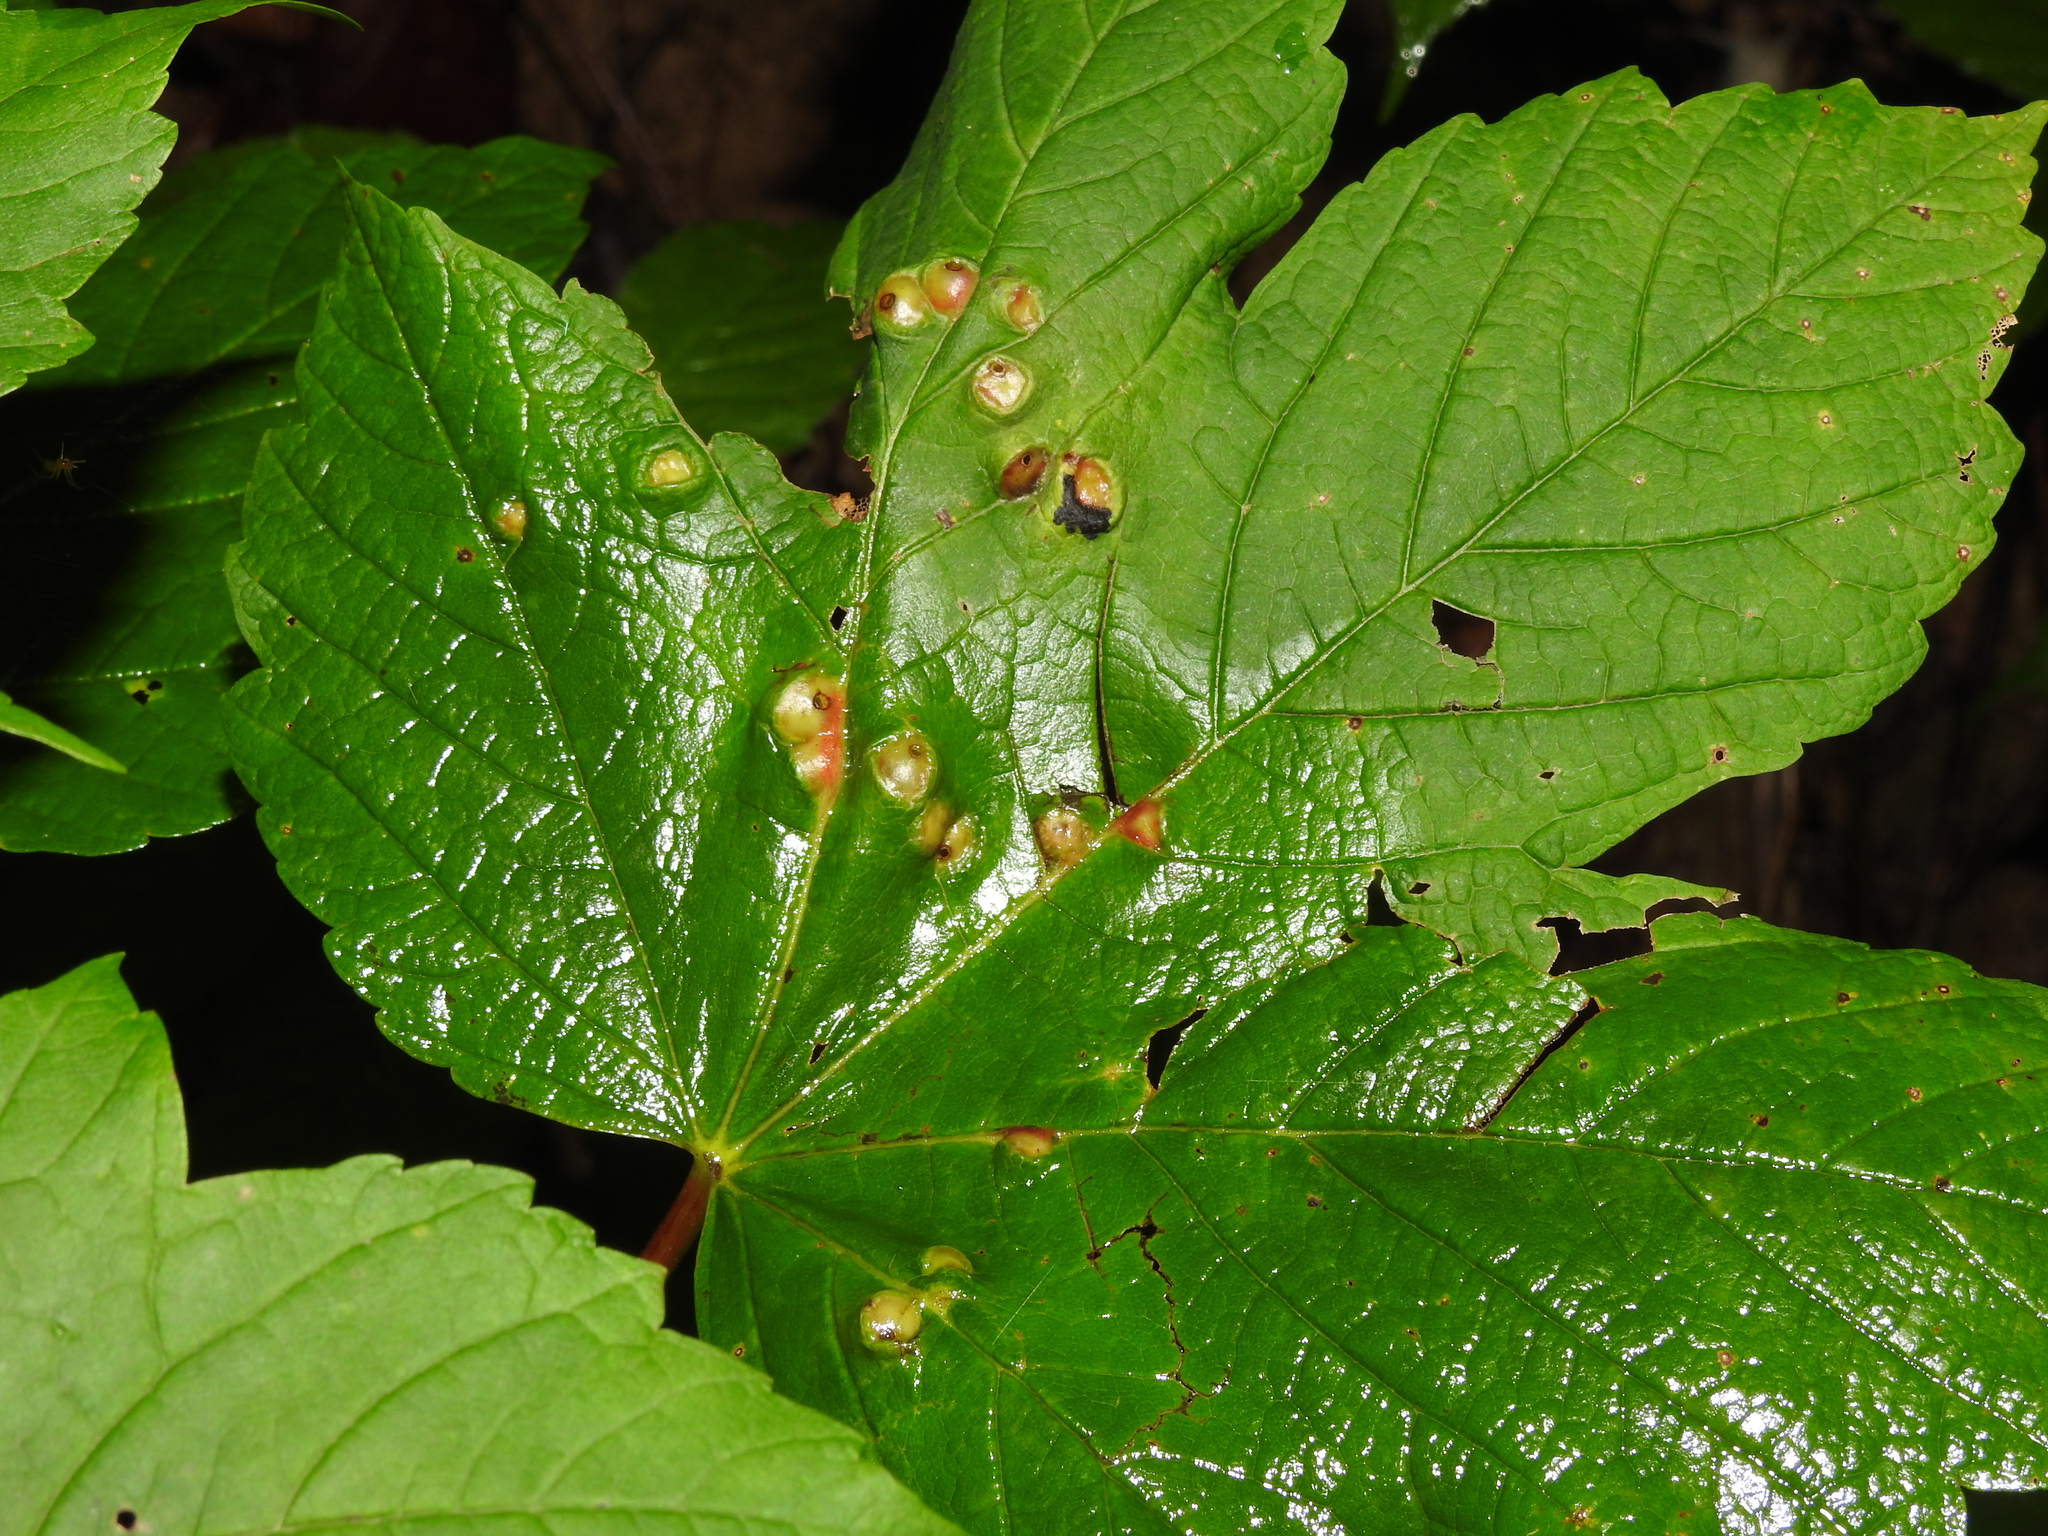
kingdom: Animalia
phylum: Arthropoda
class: Insecta
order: Hymenoptera
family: Cynipidae
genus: Pediaspis
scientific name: Pediaspis aceris
